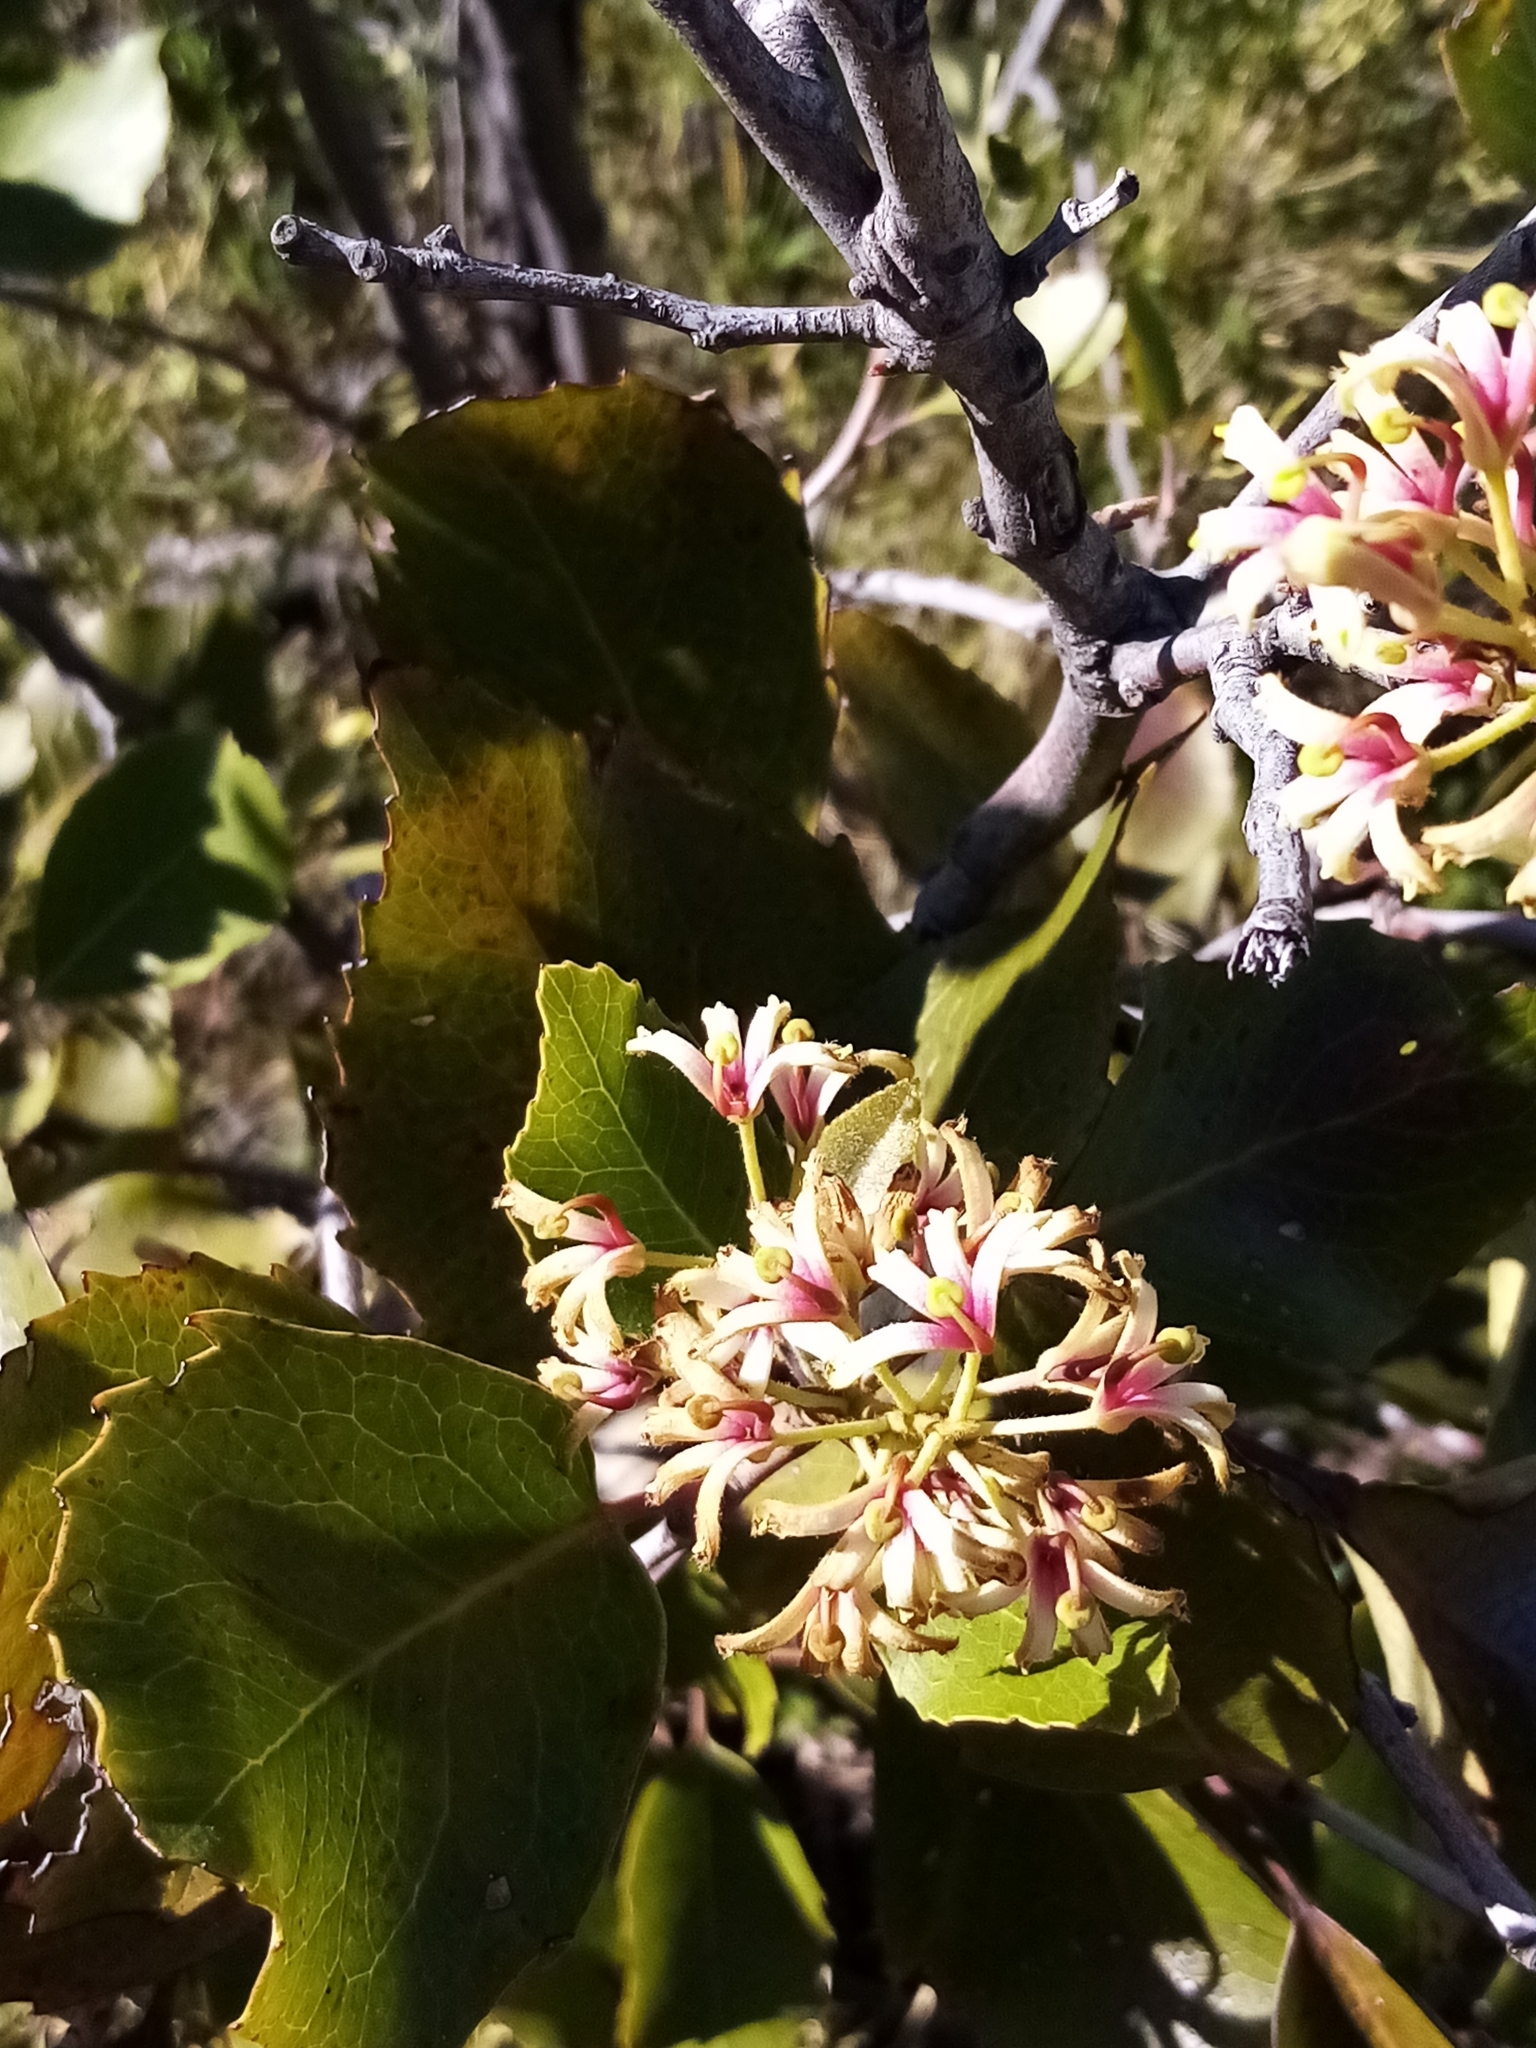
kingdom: Plantae
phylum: Tracheophyta
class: Magnoliopsida
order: Proteales
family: Proteaceae
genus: Lomatia
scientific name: Lomatia hirsuta
